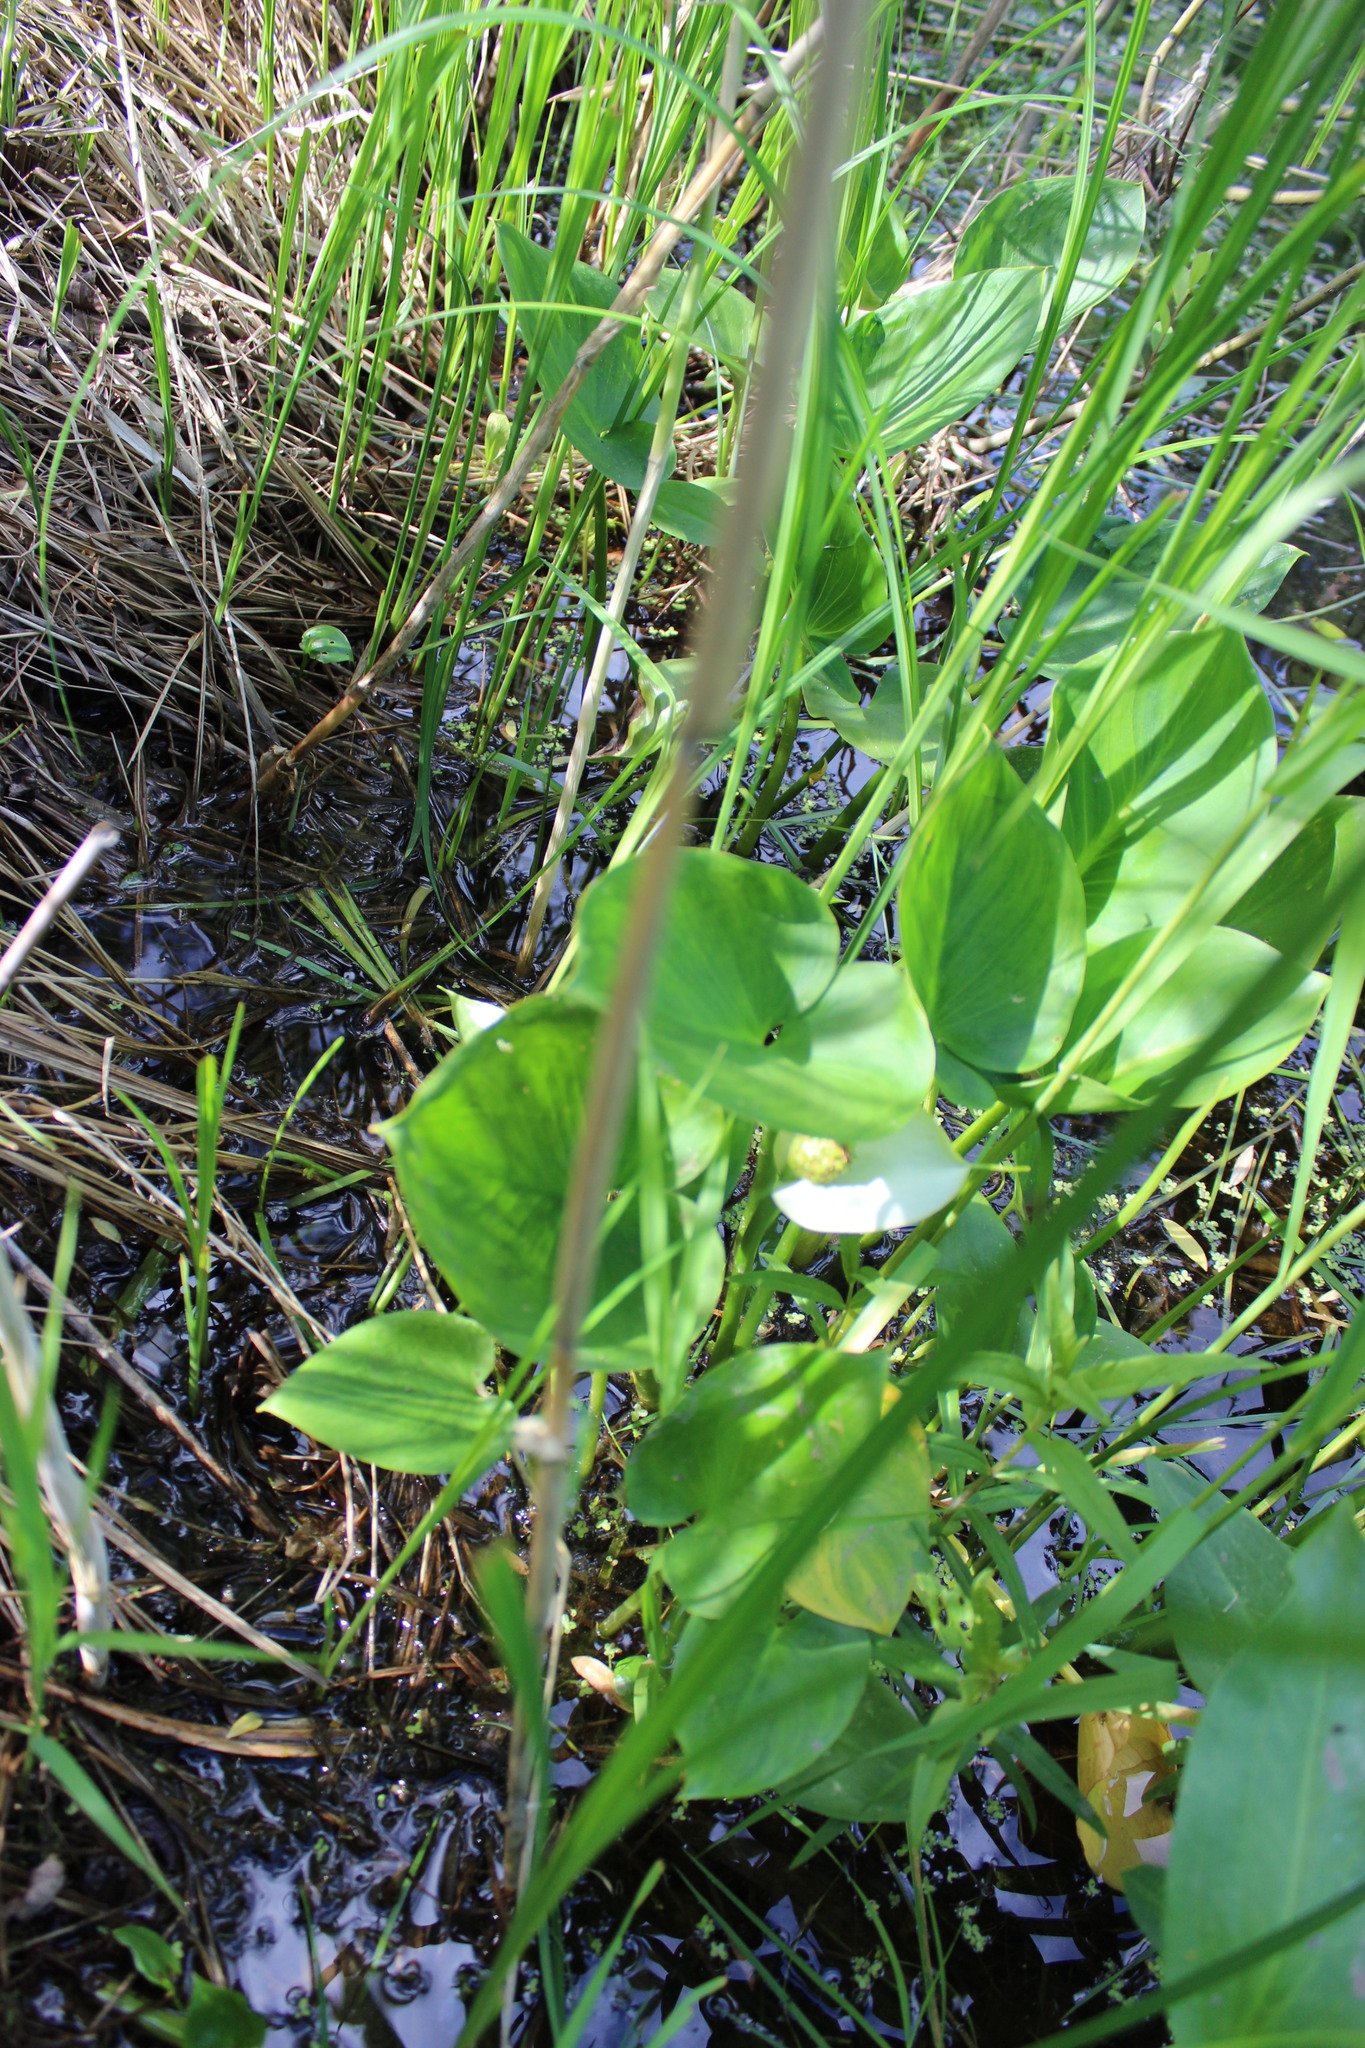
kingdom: Plantae
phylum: Tracheophyta
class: Liliopsida
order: Alismatales
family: Araceae
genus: Calla
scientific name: Calla palustris
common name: Bog arum
